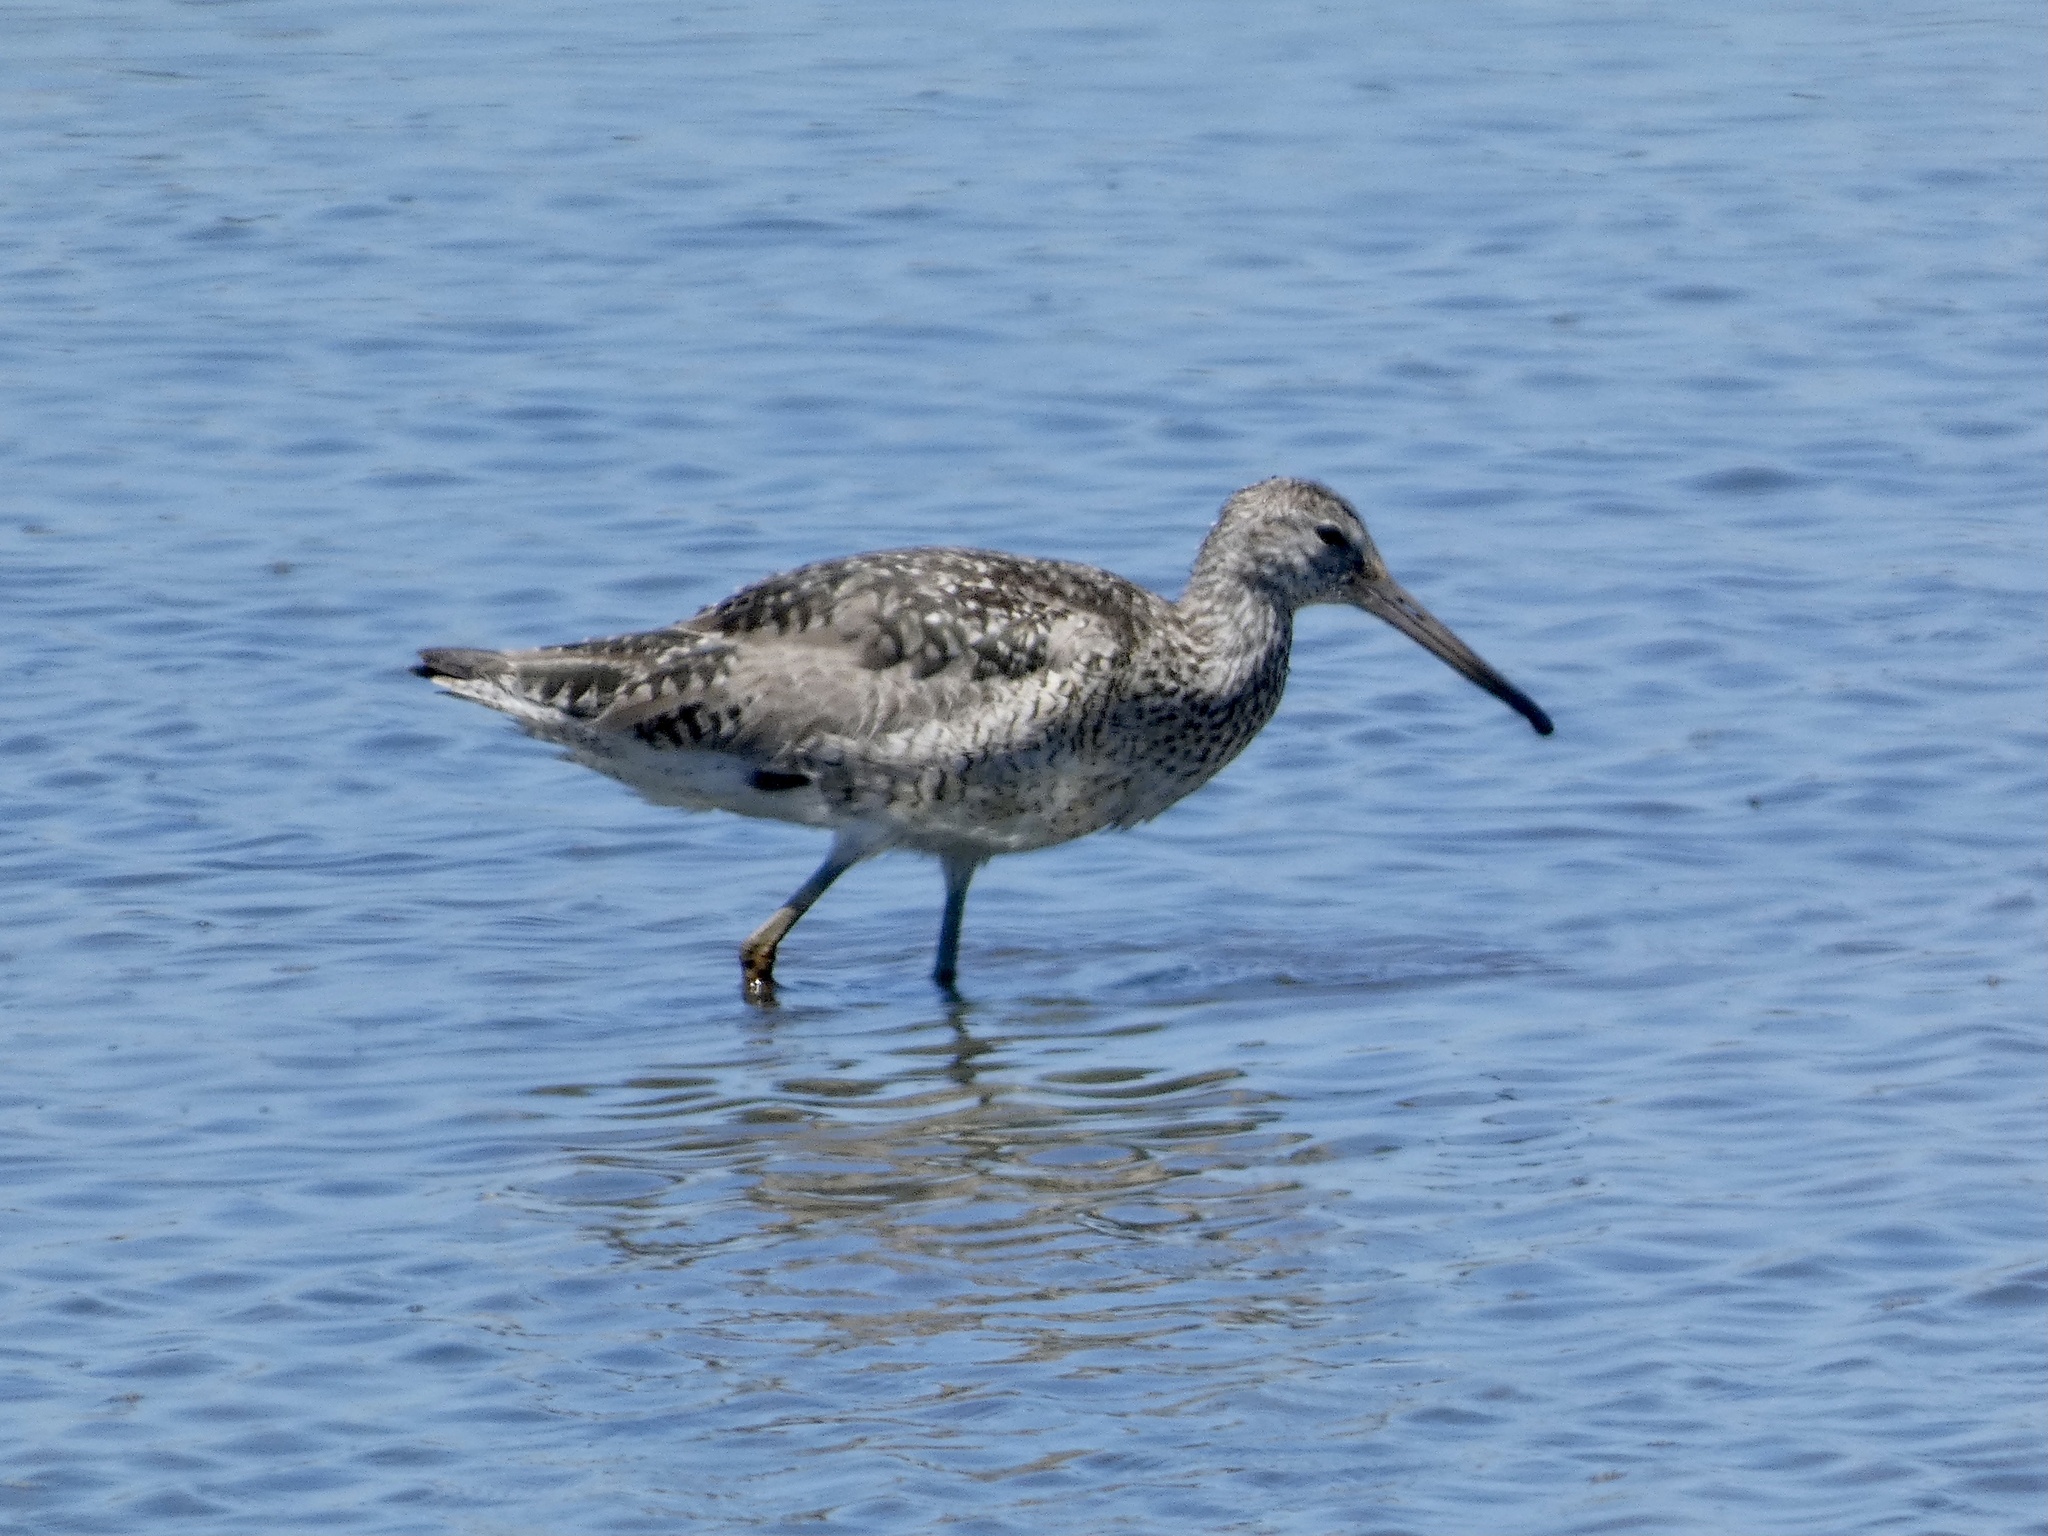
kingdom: Animalia
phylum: Chordata
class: Aves
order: Charadriiformes
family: Scolopacidae
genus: Tringa
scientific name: Tringa semipalmata
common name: Willet
